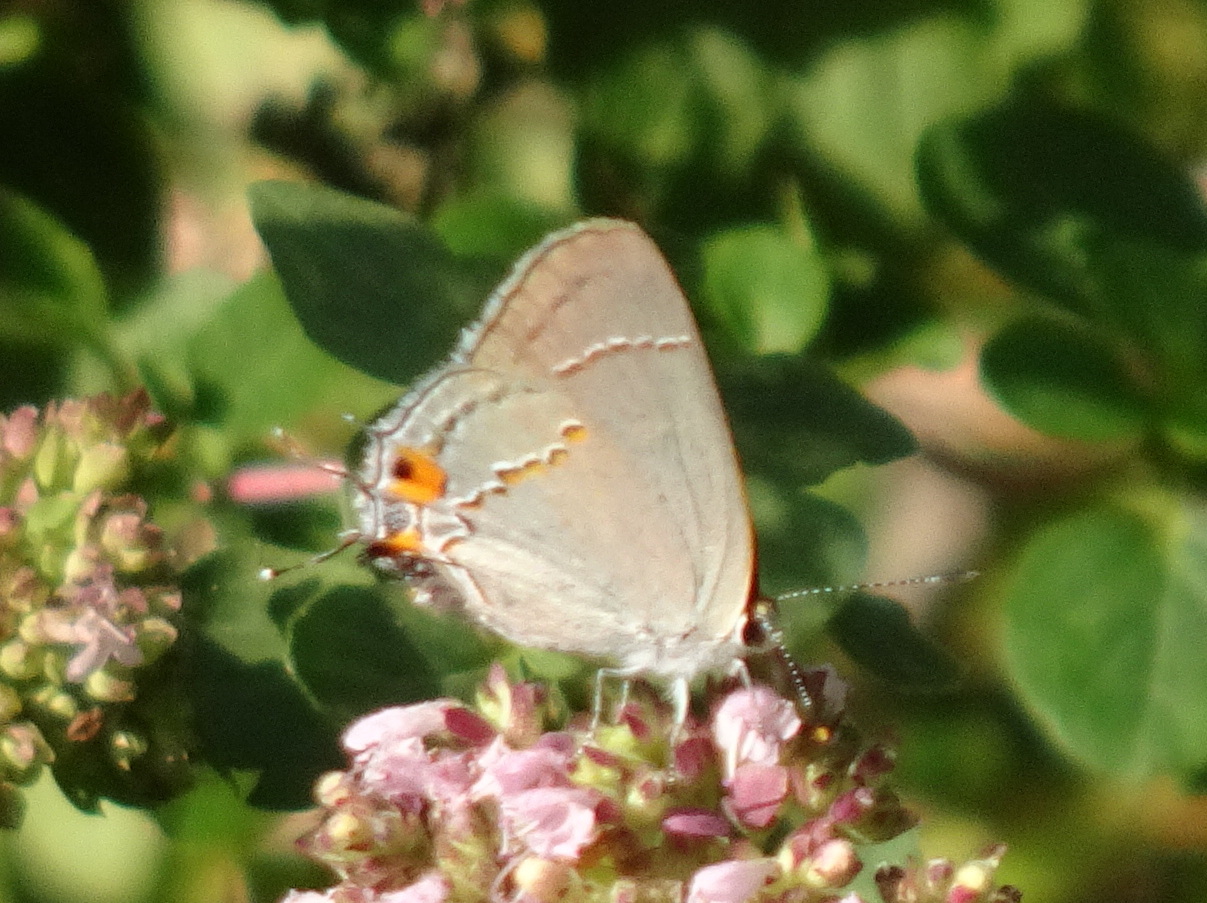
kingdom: Animalia
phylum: Arthropoda
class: Insecta
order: Lepidoptera
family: Lycaenidae
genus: Strymon
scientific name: Strymon melinus
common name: Gray hairstreak
